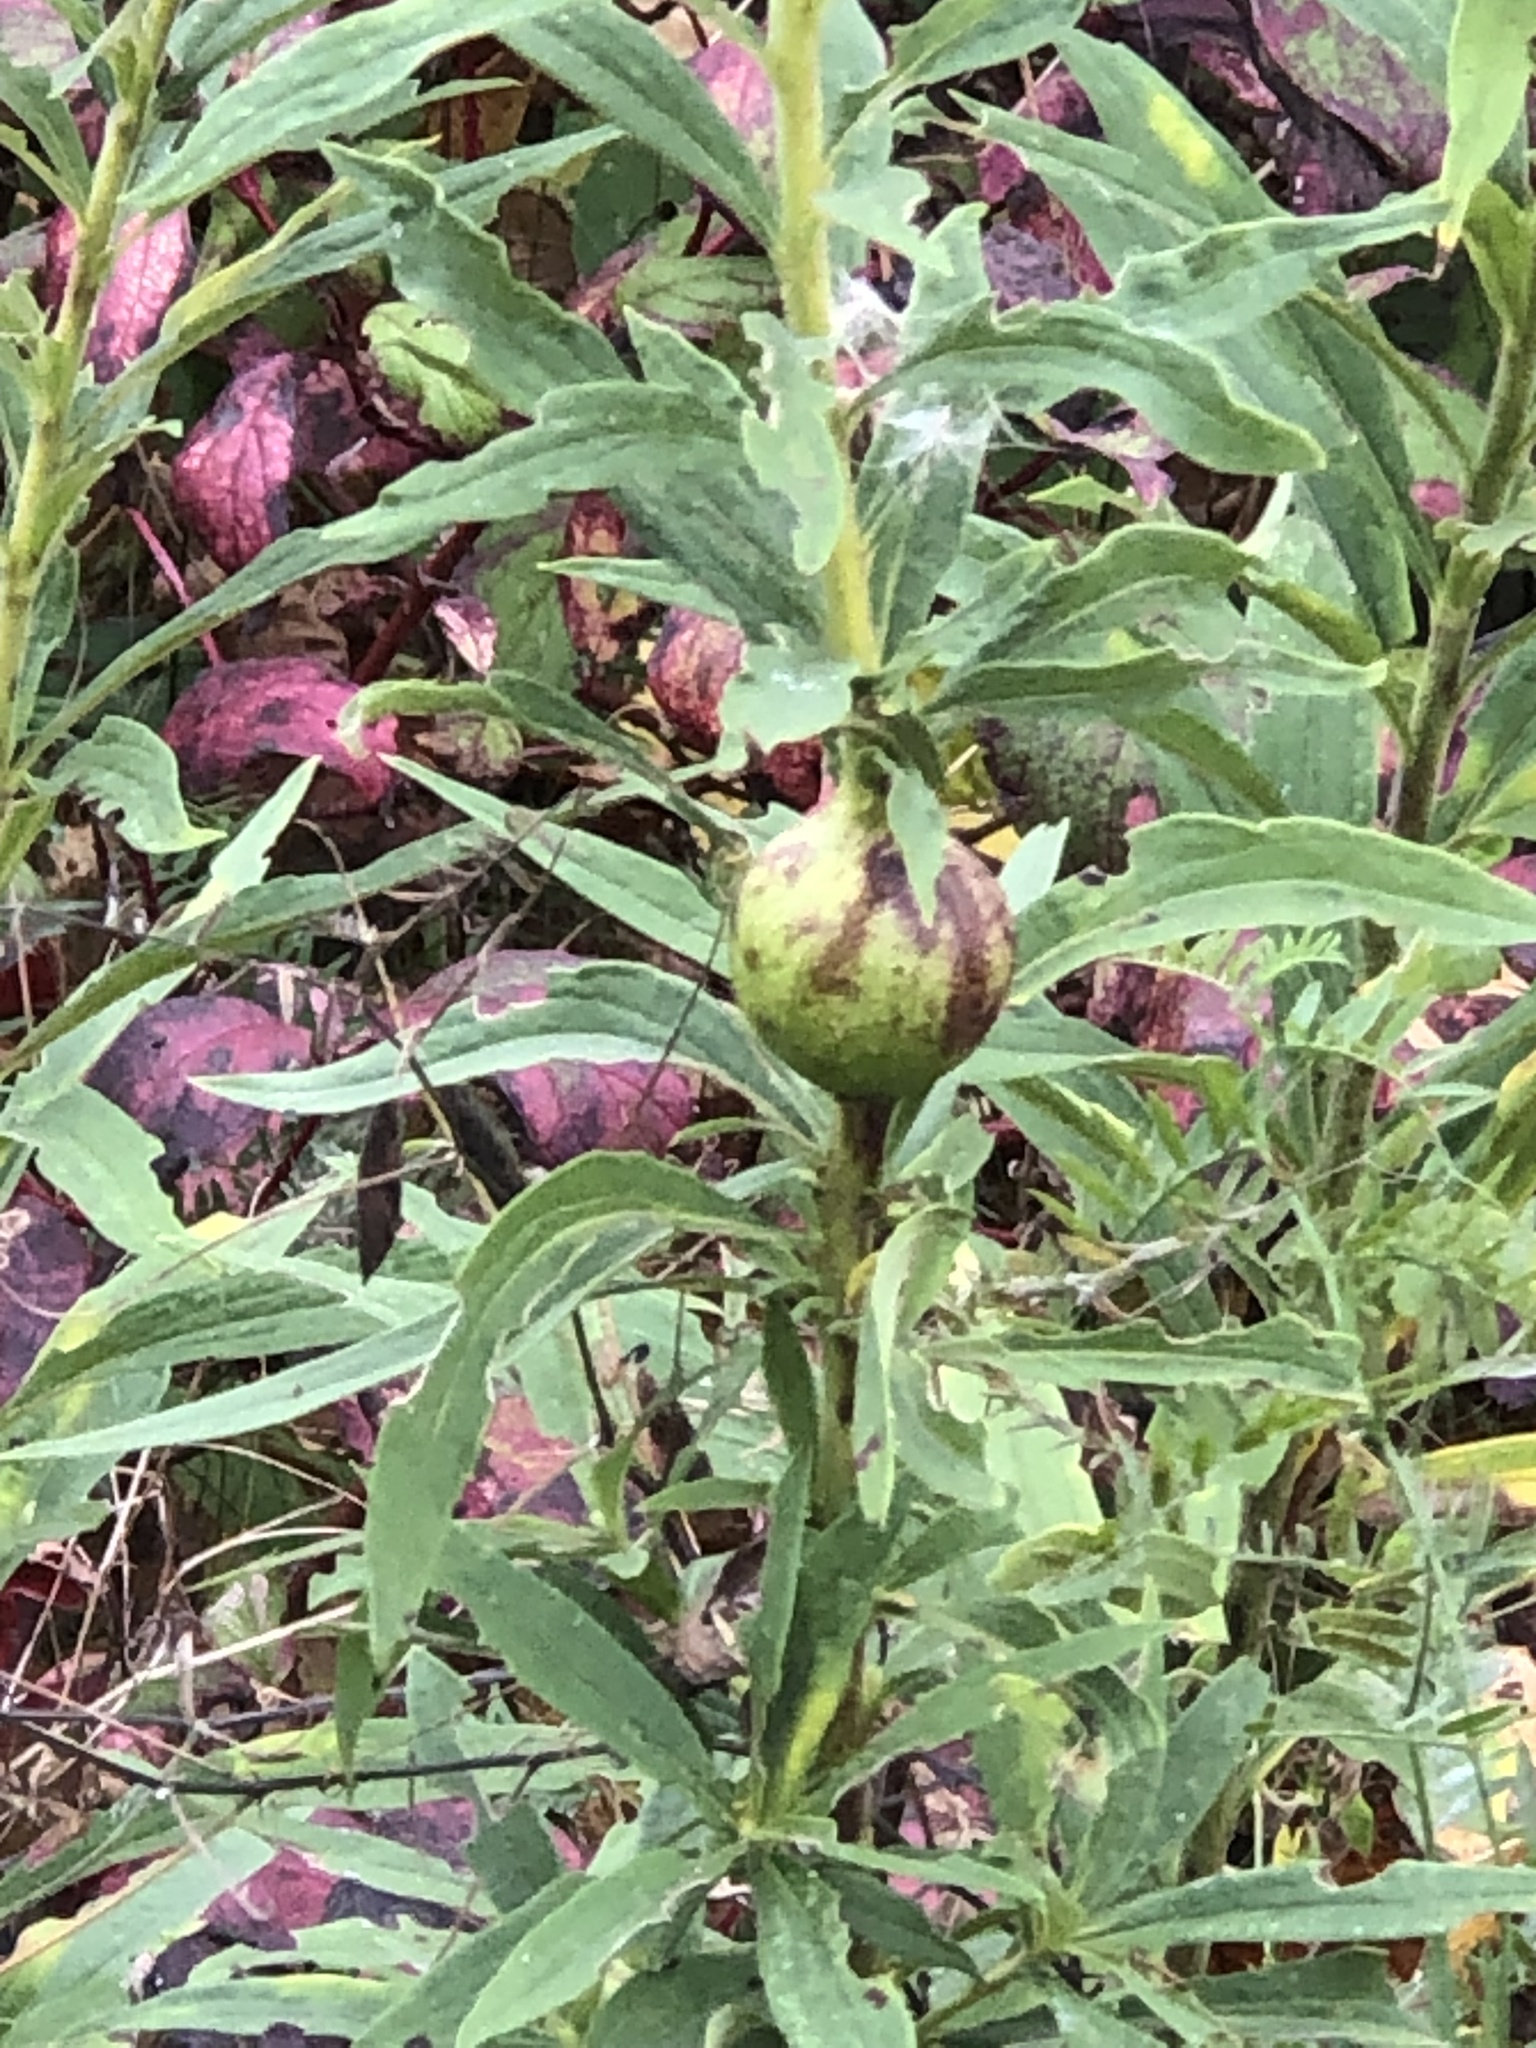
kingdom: Animalia
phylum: Arthropoda
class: Insecta
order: Diptera
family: Tephritidae
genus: Eurosta
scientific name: Eurosta solidaginis
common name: Goldenrod gall fly
